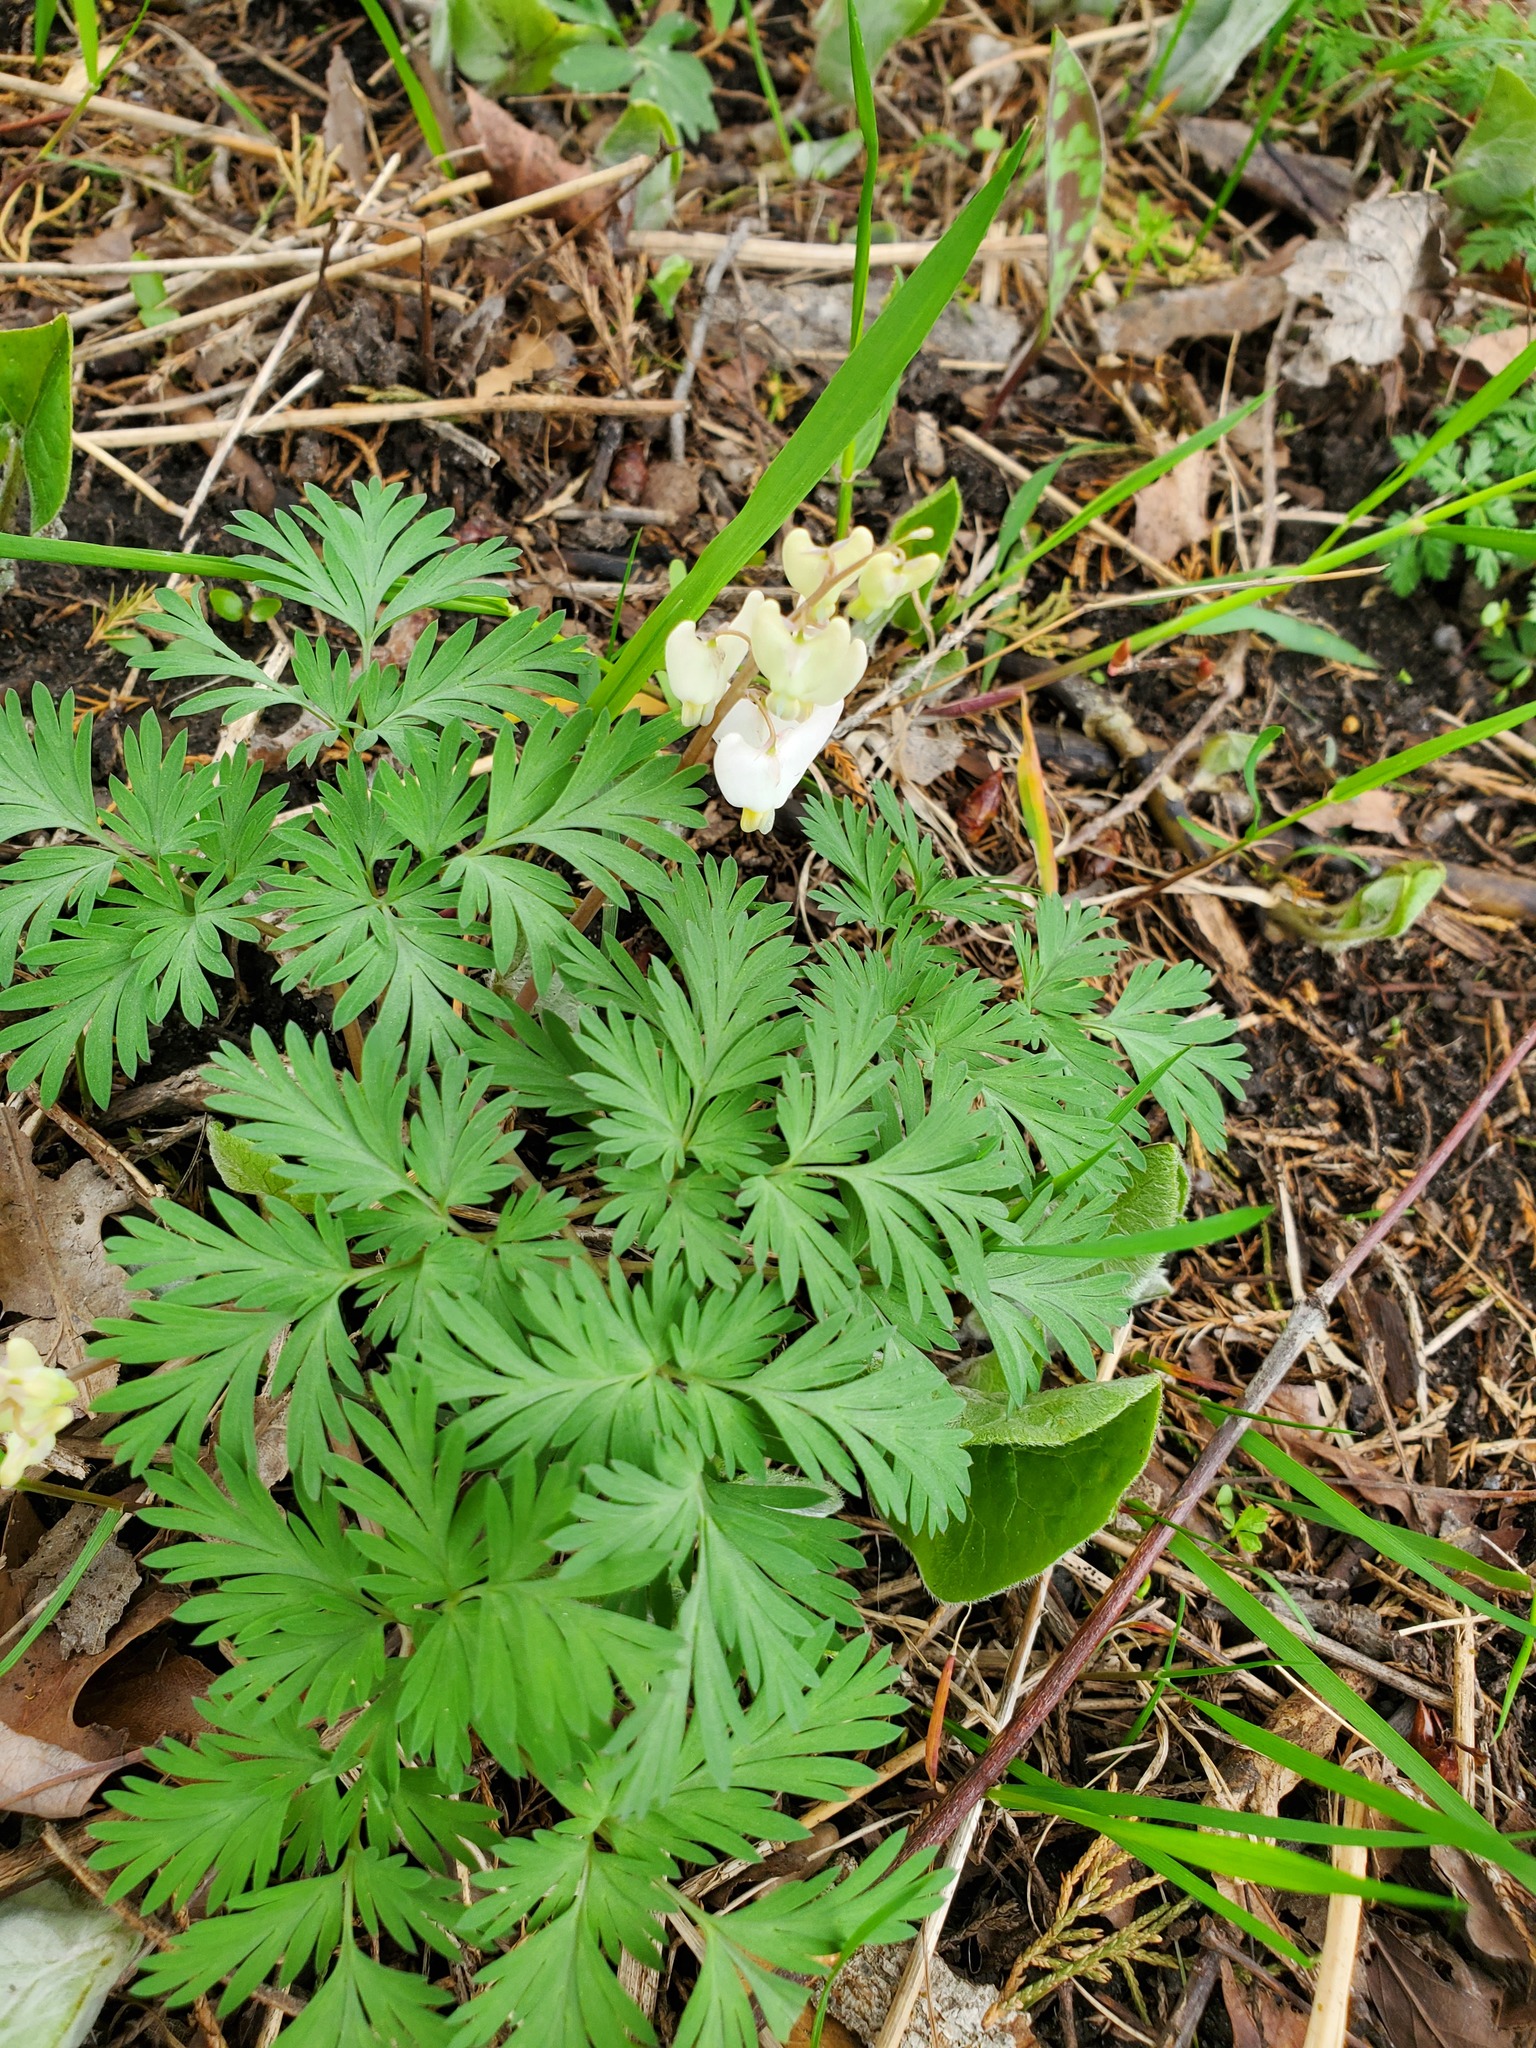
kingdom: Plantae
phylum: Tracheophyta
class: Magnoliopsida
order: Ranunculales
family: Papaveraceae
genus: Dicentra
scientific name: Dicentra cucullaria
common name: Dutchman's breeches
